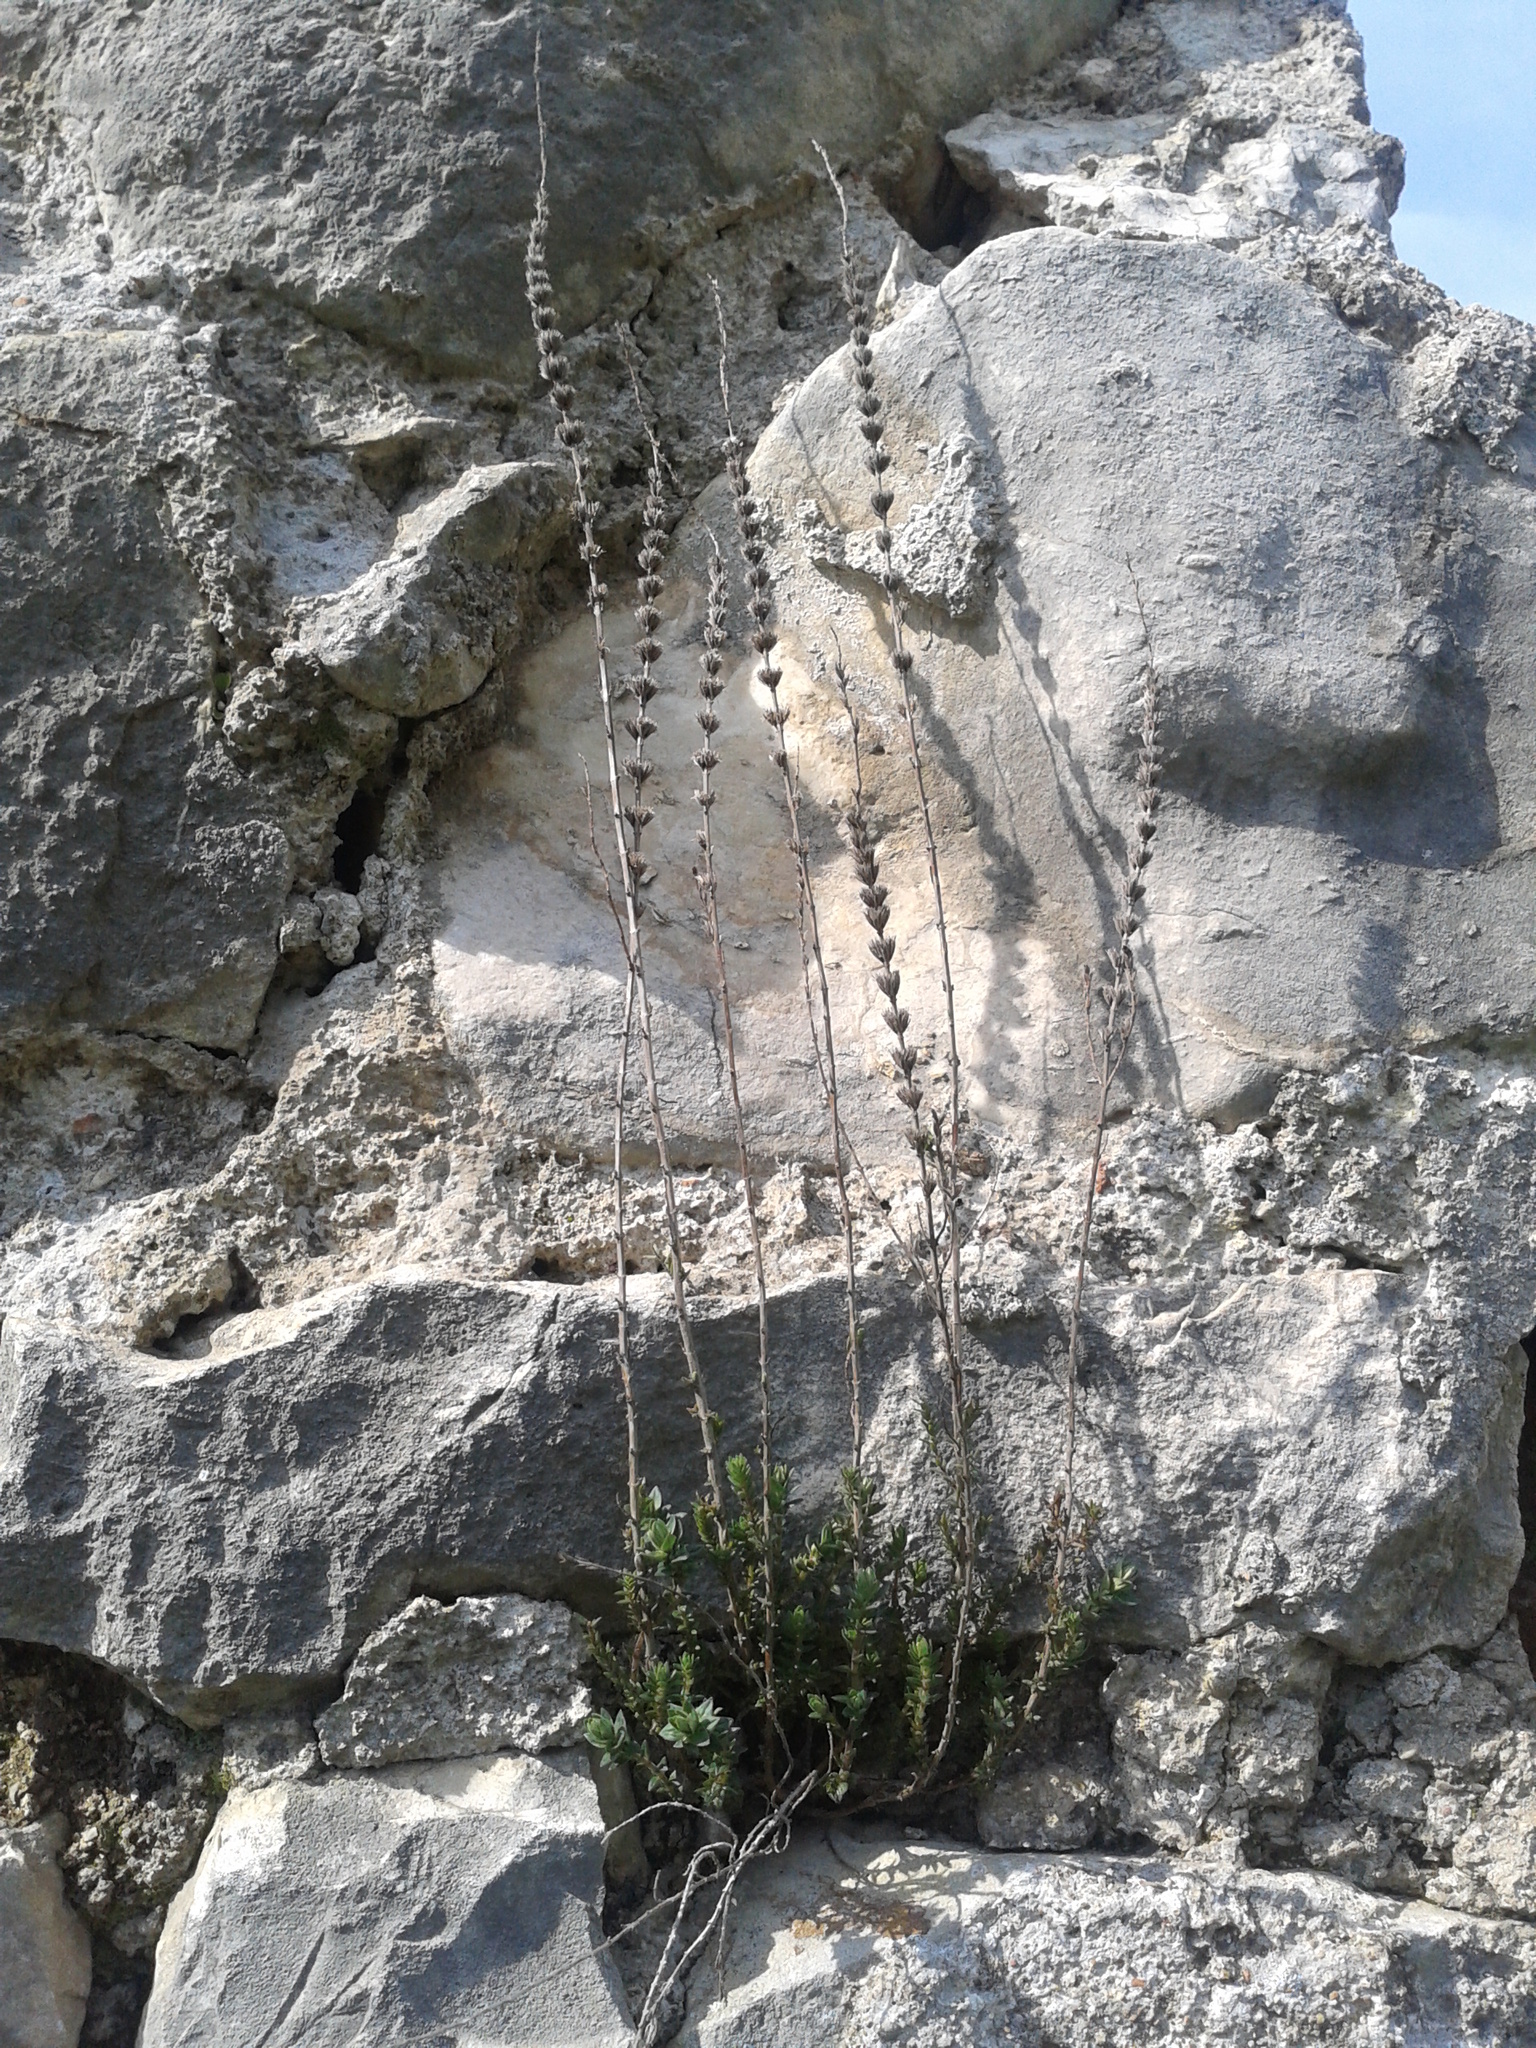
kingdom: Plantae
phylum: Tracheophyta
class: Magnoliopsida
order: Lamiales
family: Lamiaceae
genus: Micromeria
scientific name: Micromeria juliana
